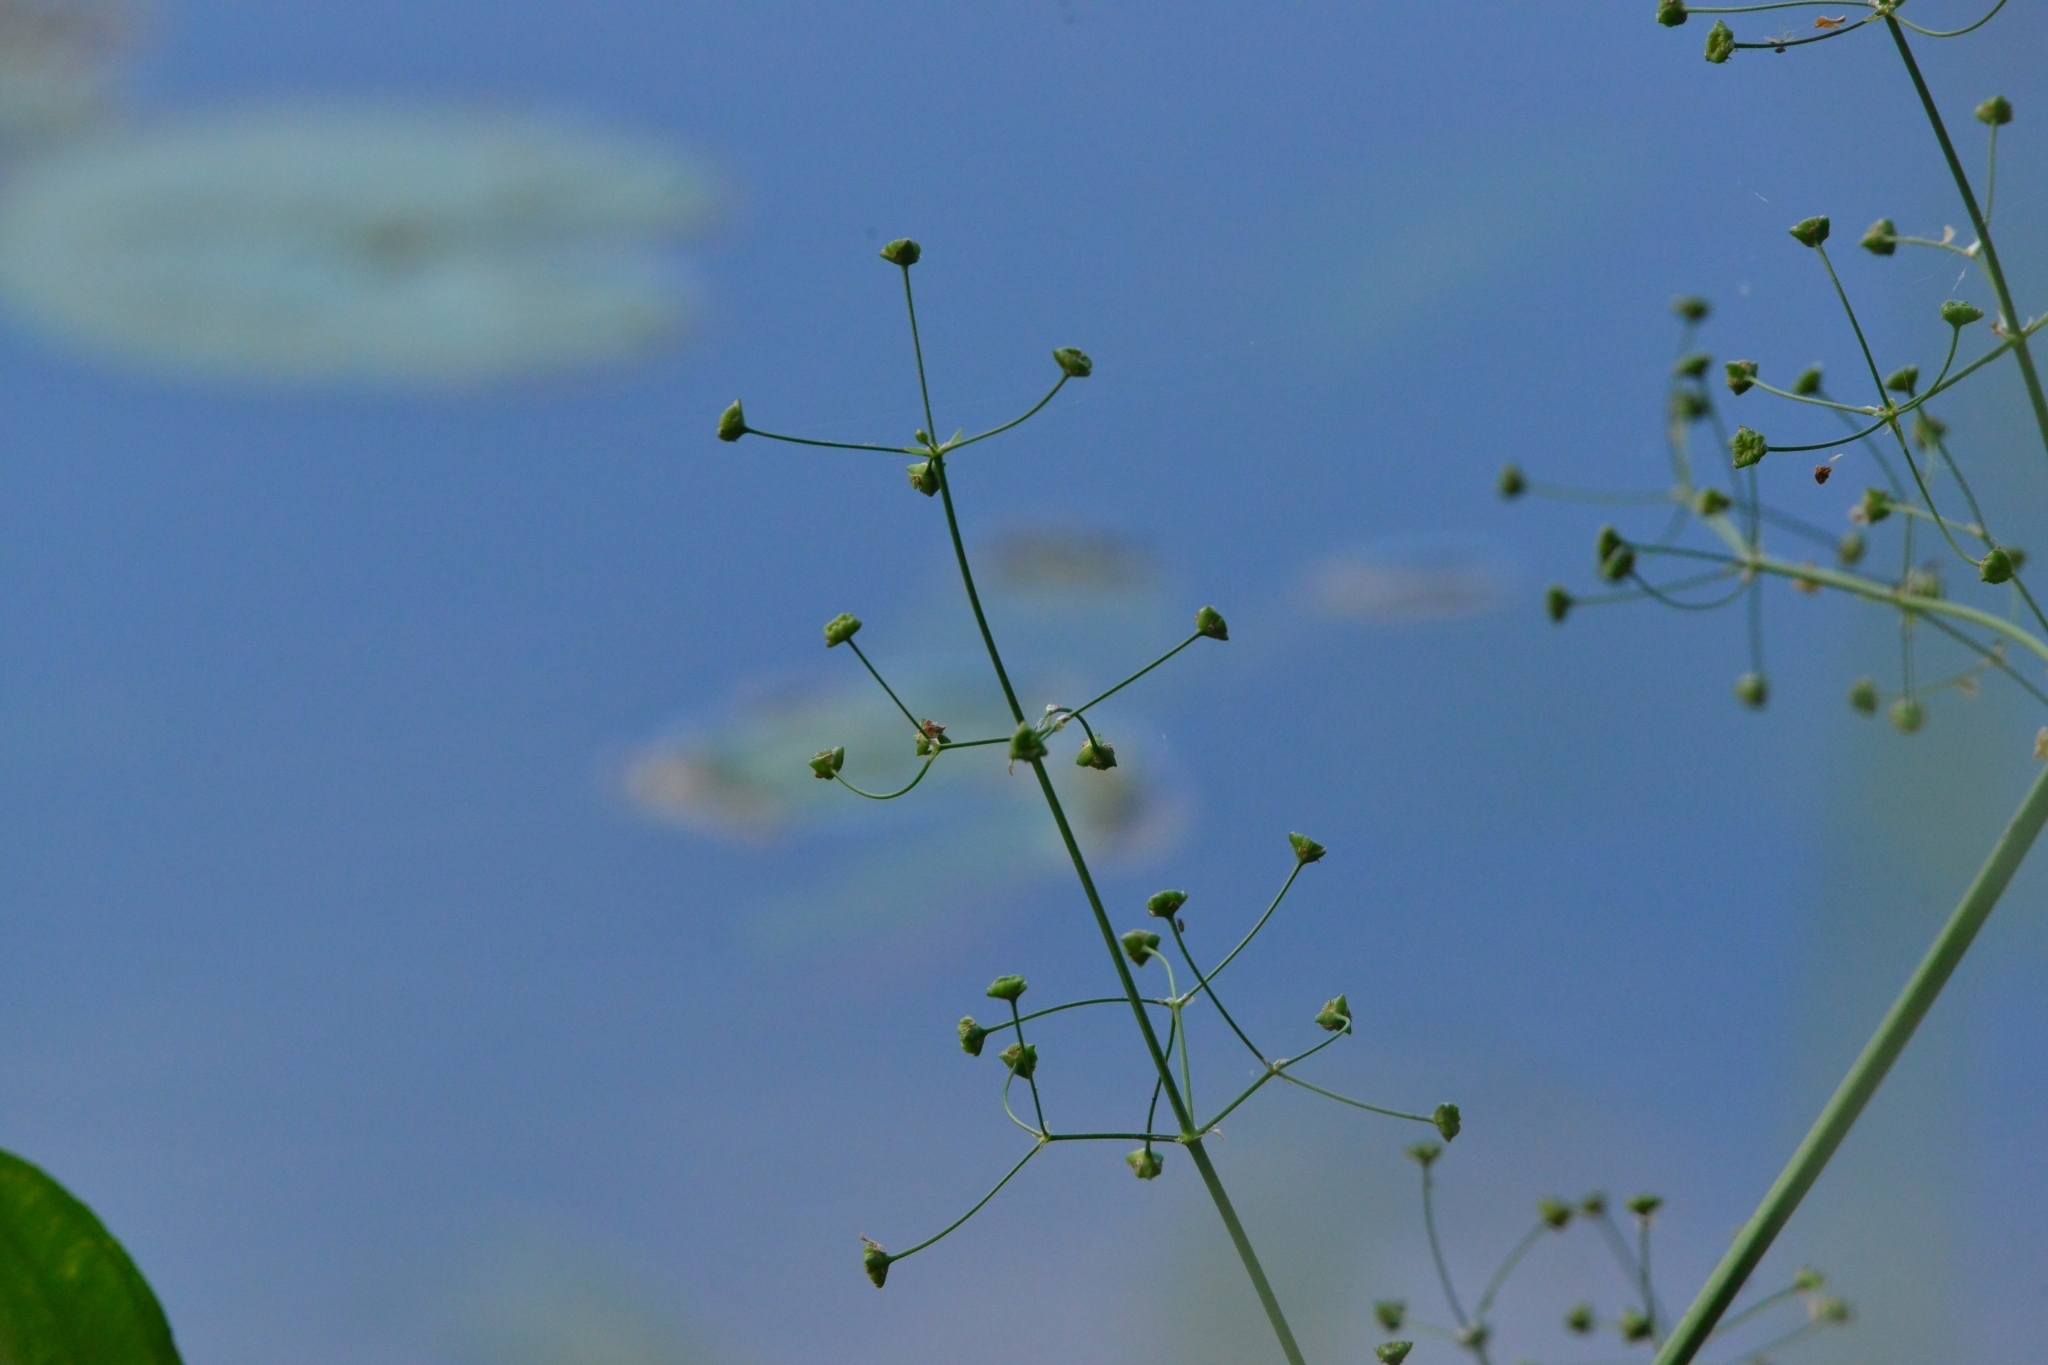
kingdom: Plantae
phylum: Tracheophyta
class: Liliopsida
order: Alismatales
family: Alismataceae
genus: Alisma
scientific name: Alisma plantago-aquatica
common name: Water-plantain
